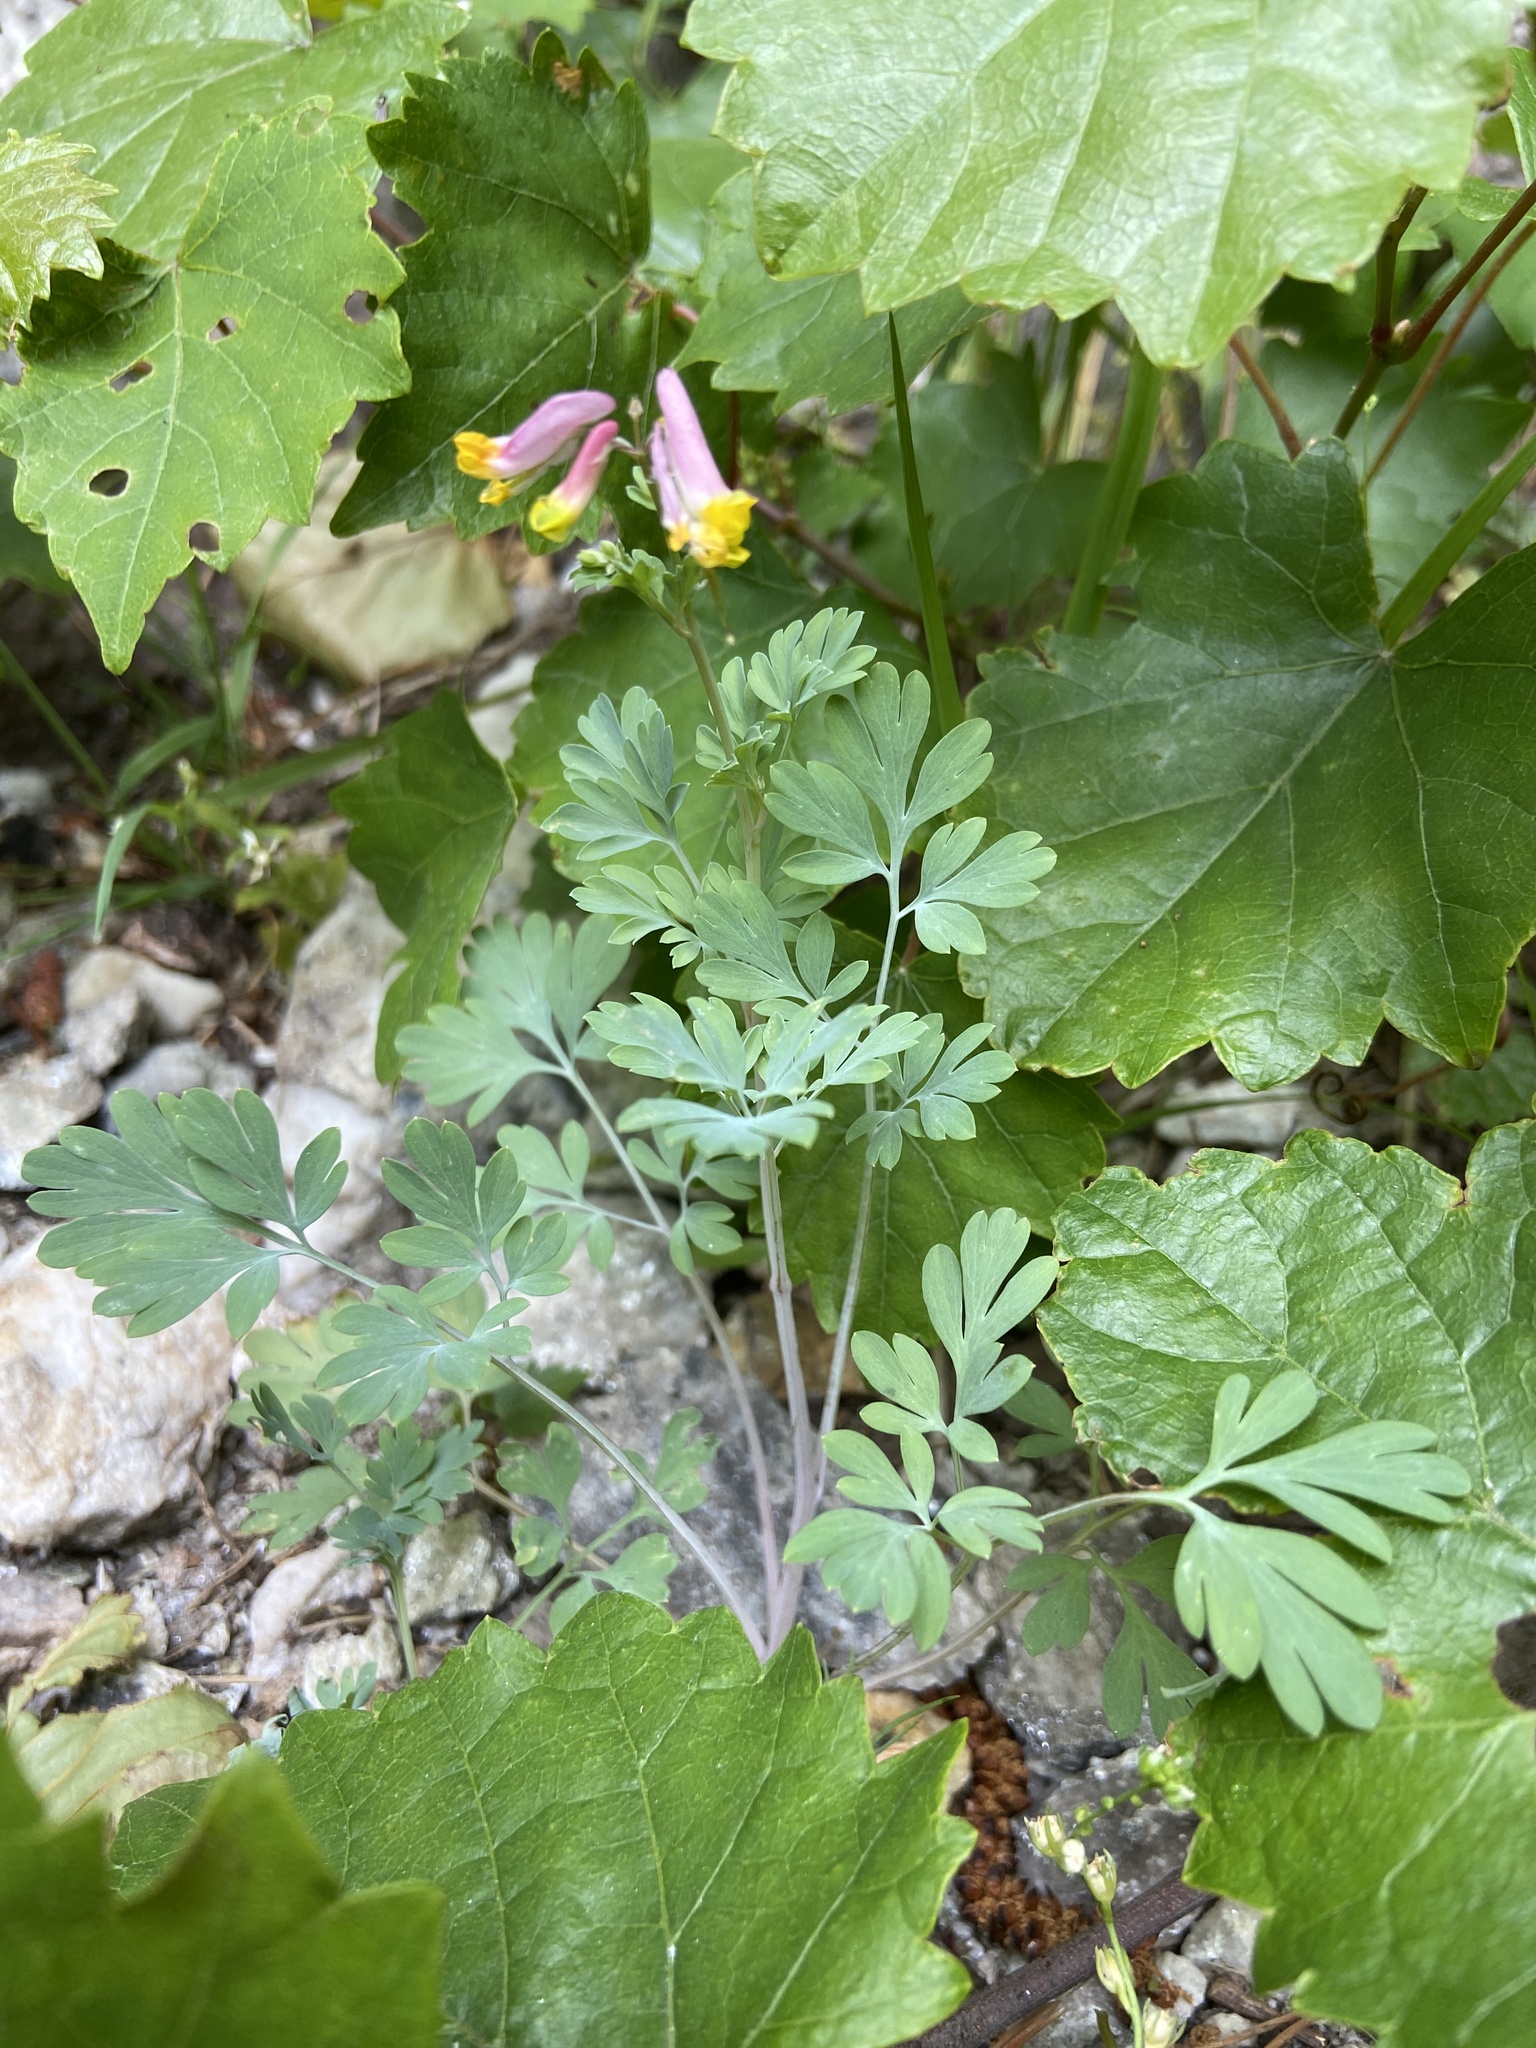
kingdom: Plantae
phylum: Tracheophyta
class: Magnoliopsida
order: Ranunculales
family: Papaveraceae
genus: Capnoides
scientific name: Capnoides sempervirens
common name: Rock harlequin
